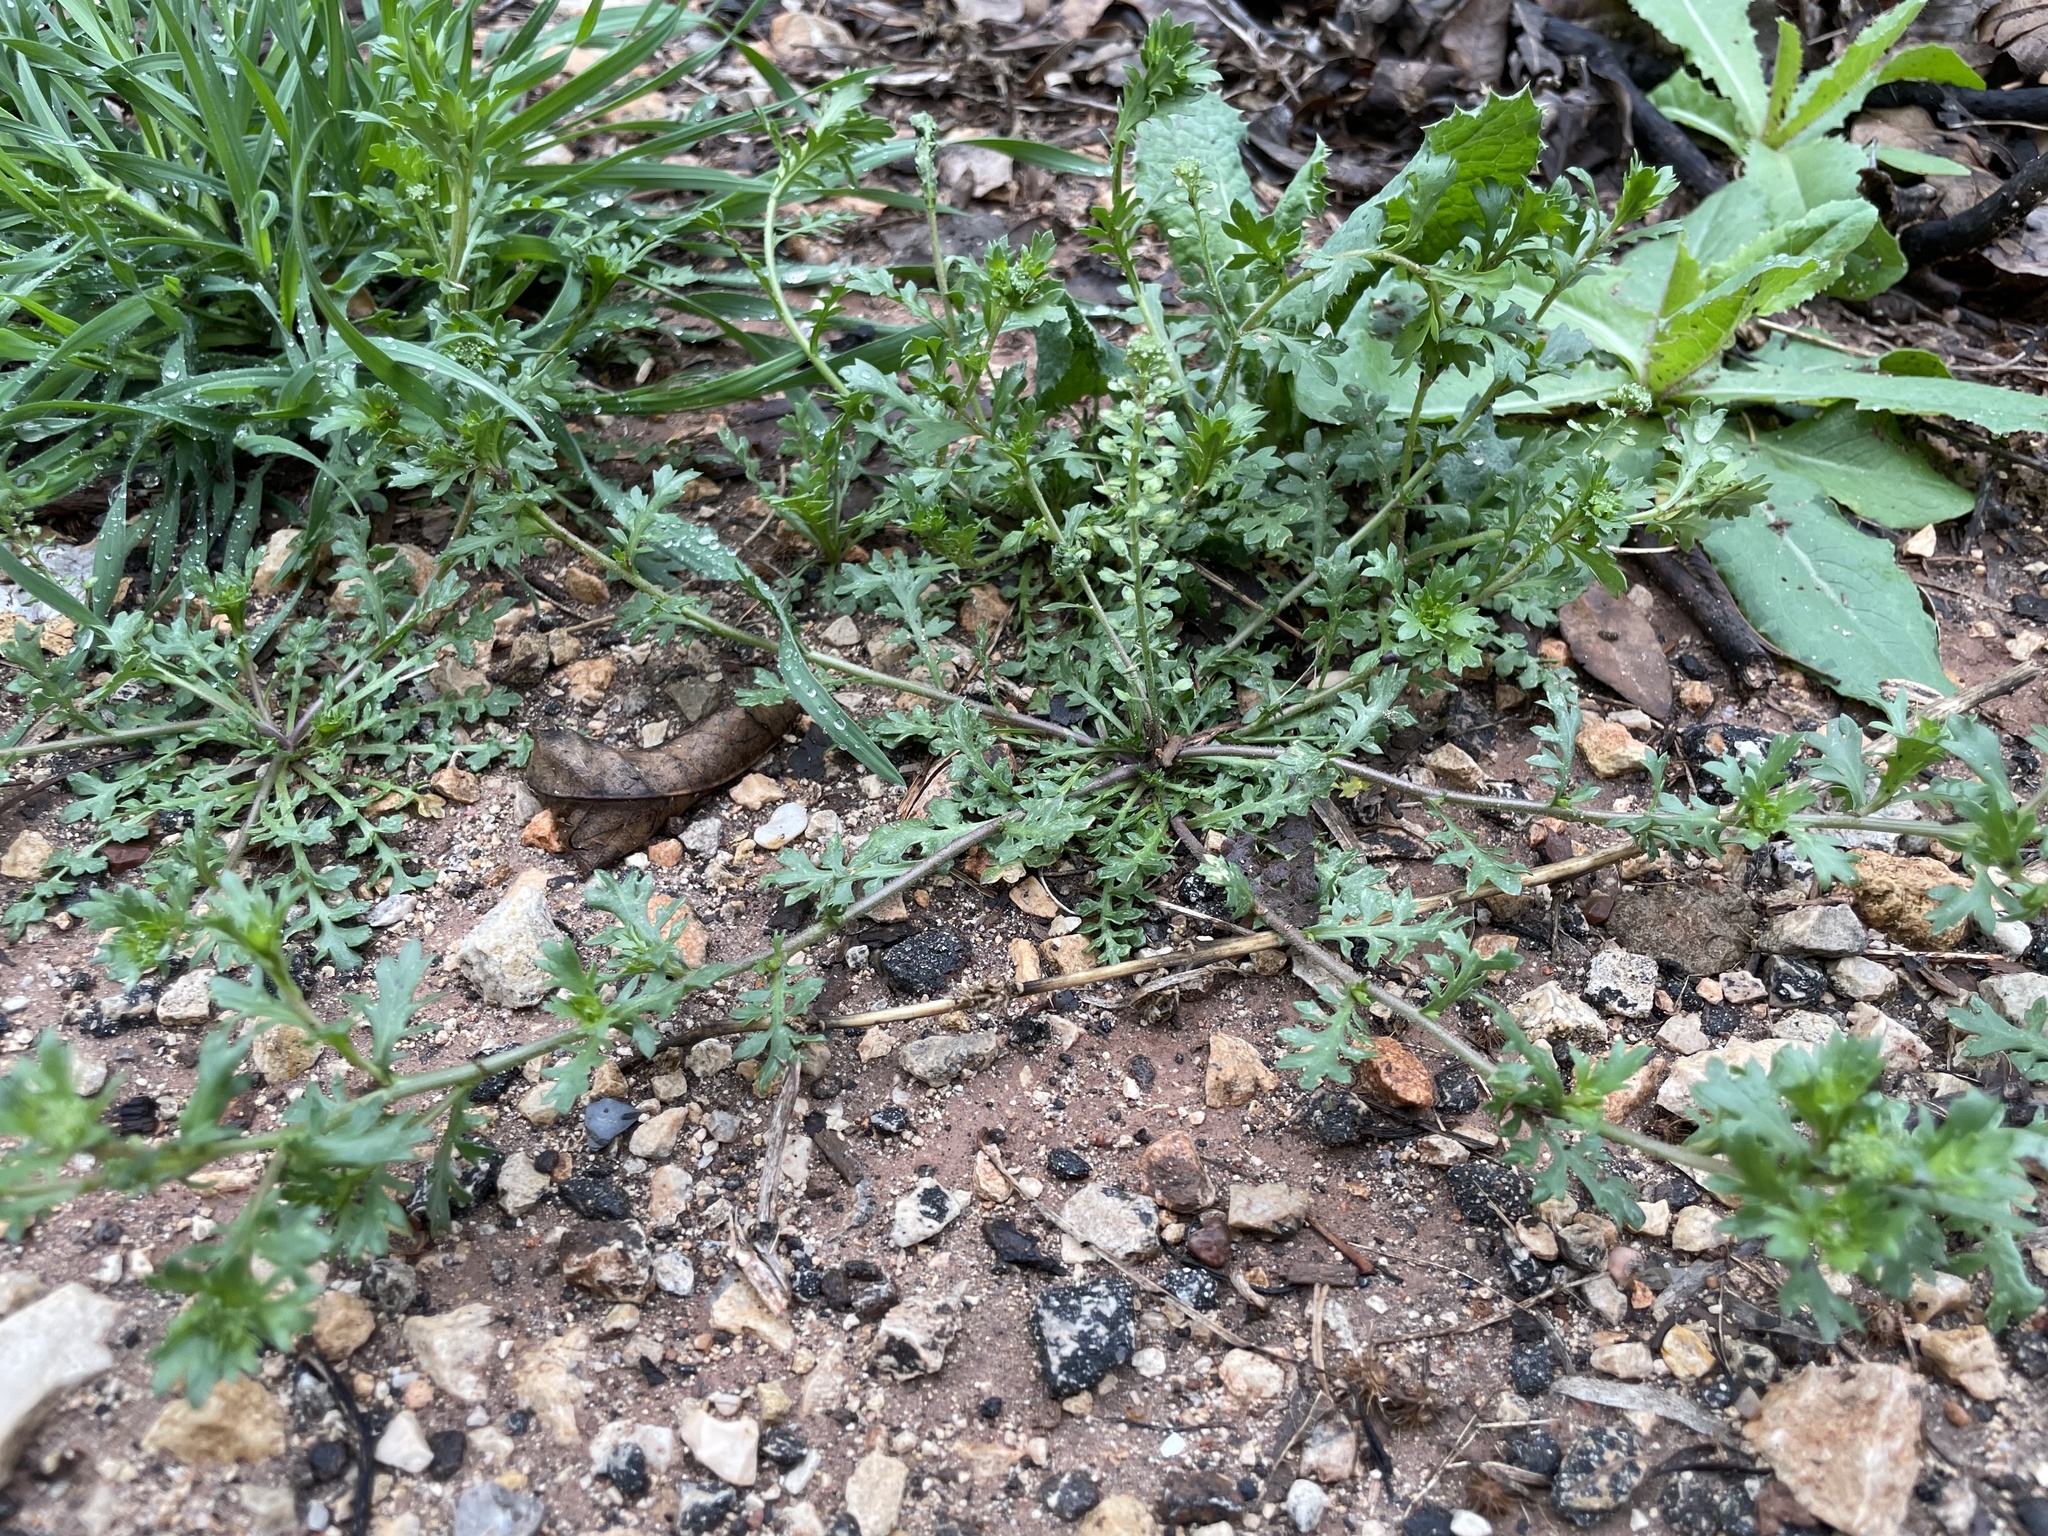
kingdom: Plantae
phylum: Tracheophyta
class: Magnoliopsida
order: Brassicales
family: Brassicaceae
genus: Lepidium
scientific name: Lepidium oblongum
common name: Veiny pepperweed
